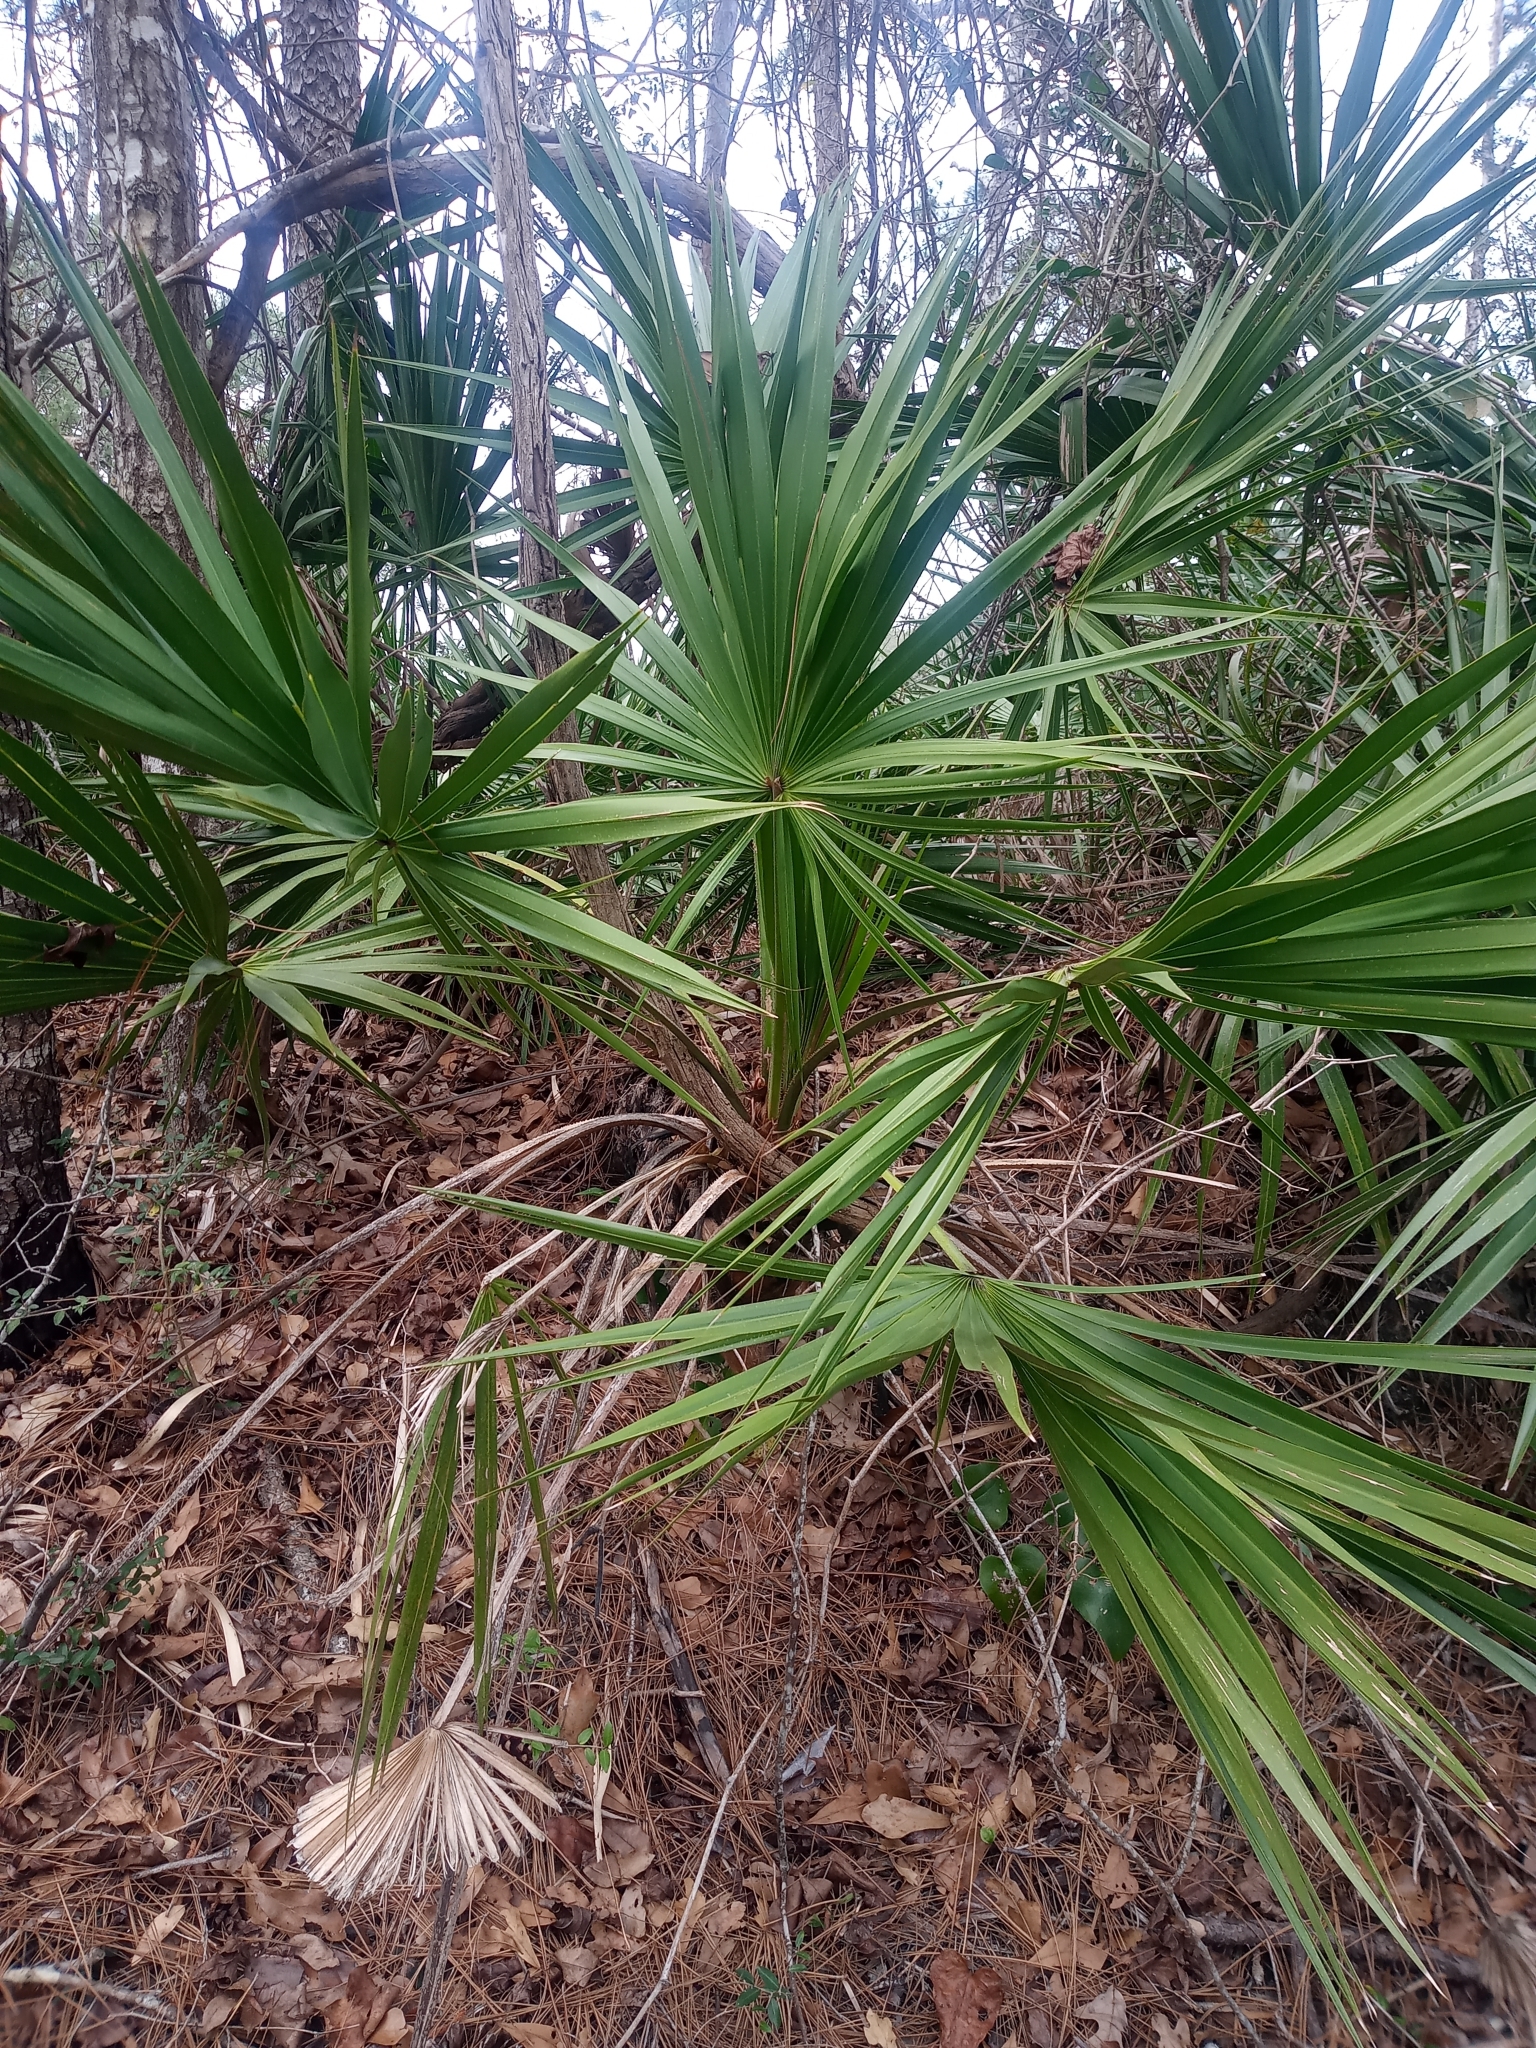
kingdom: Plantae
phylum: Tracheophyta
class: Liliopsida
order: Arecales
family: Arecaceae
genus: Serenoa
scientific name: Serenoa repens
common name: Saw-palmetto
